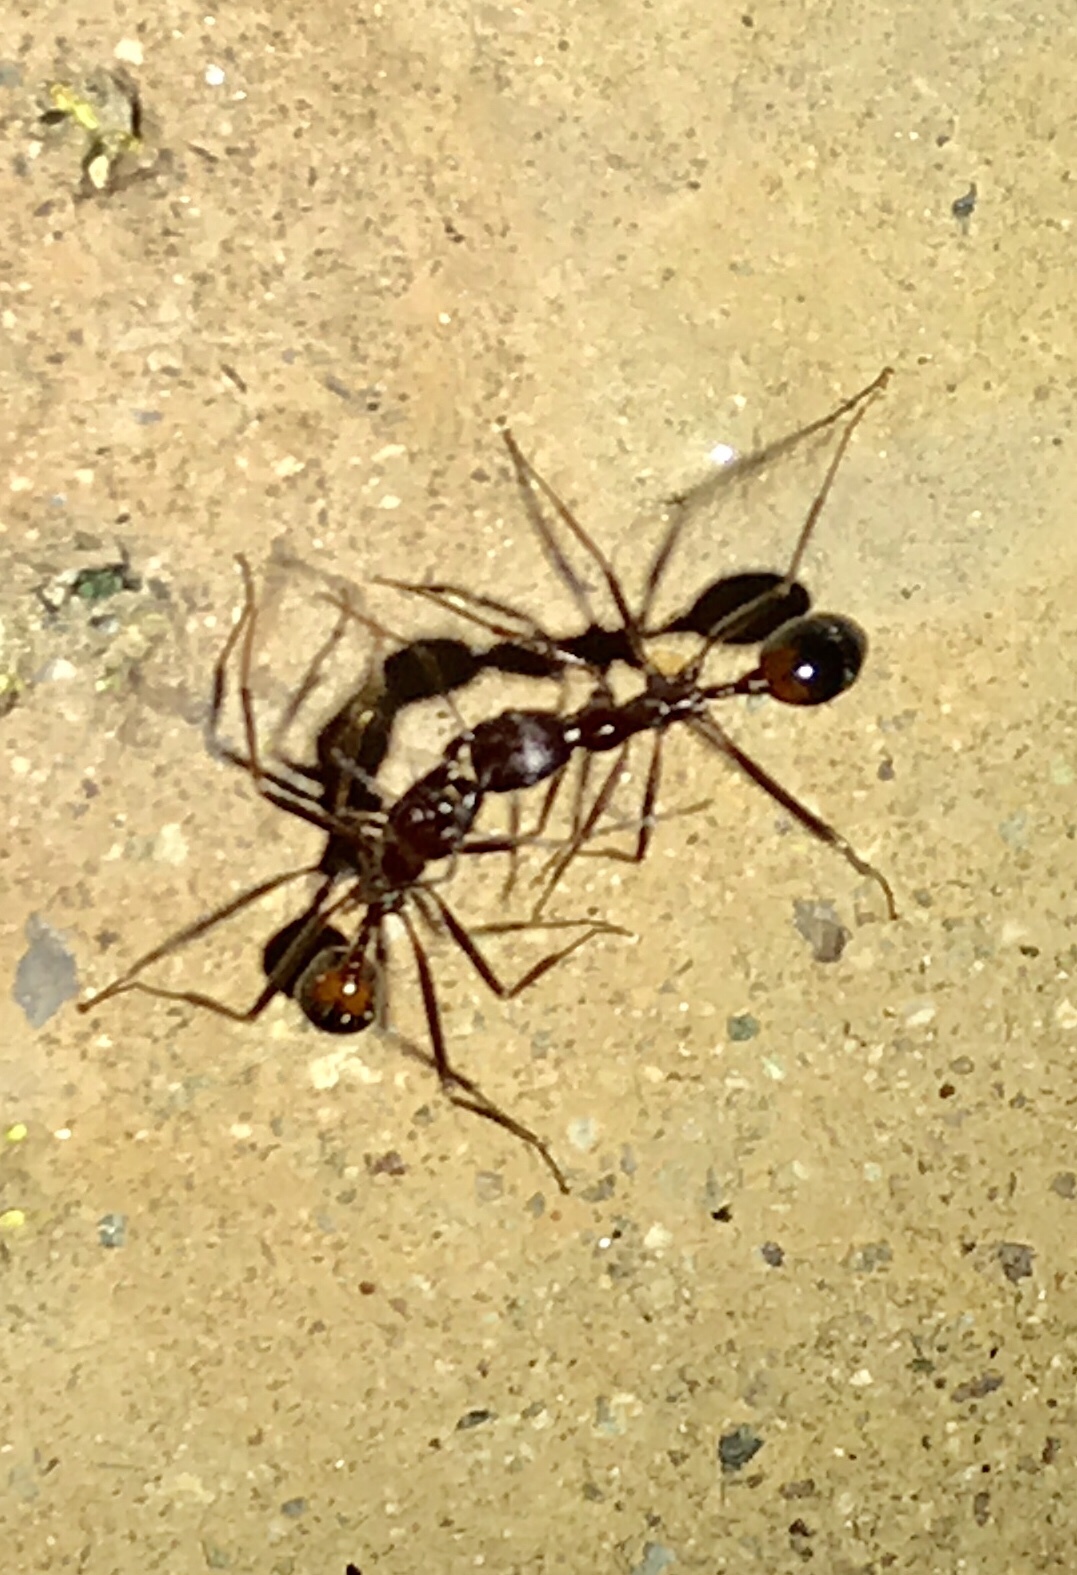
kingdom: Animalia
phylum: Arthropoda
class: Insecta
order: Hymenoptera
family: Formicidae
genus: Novomessor
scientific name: Novomessor cockerelli
